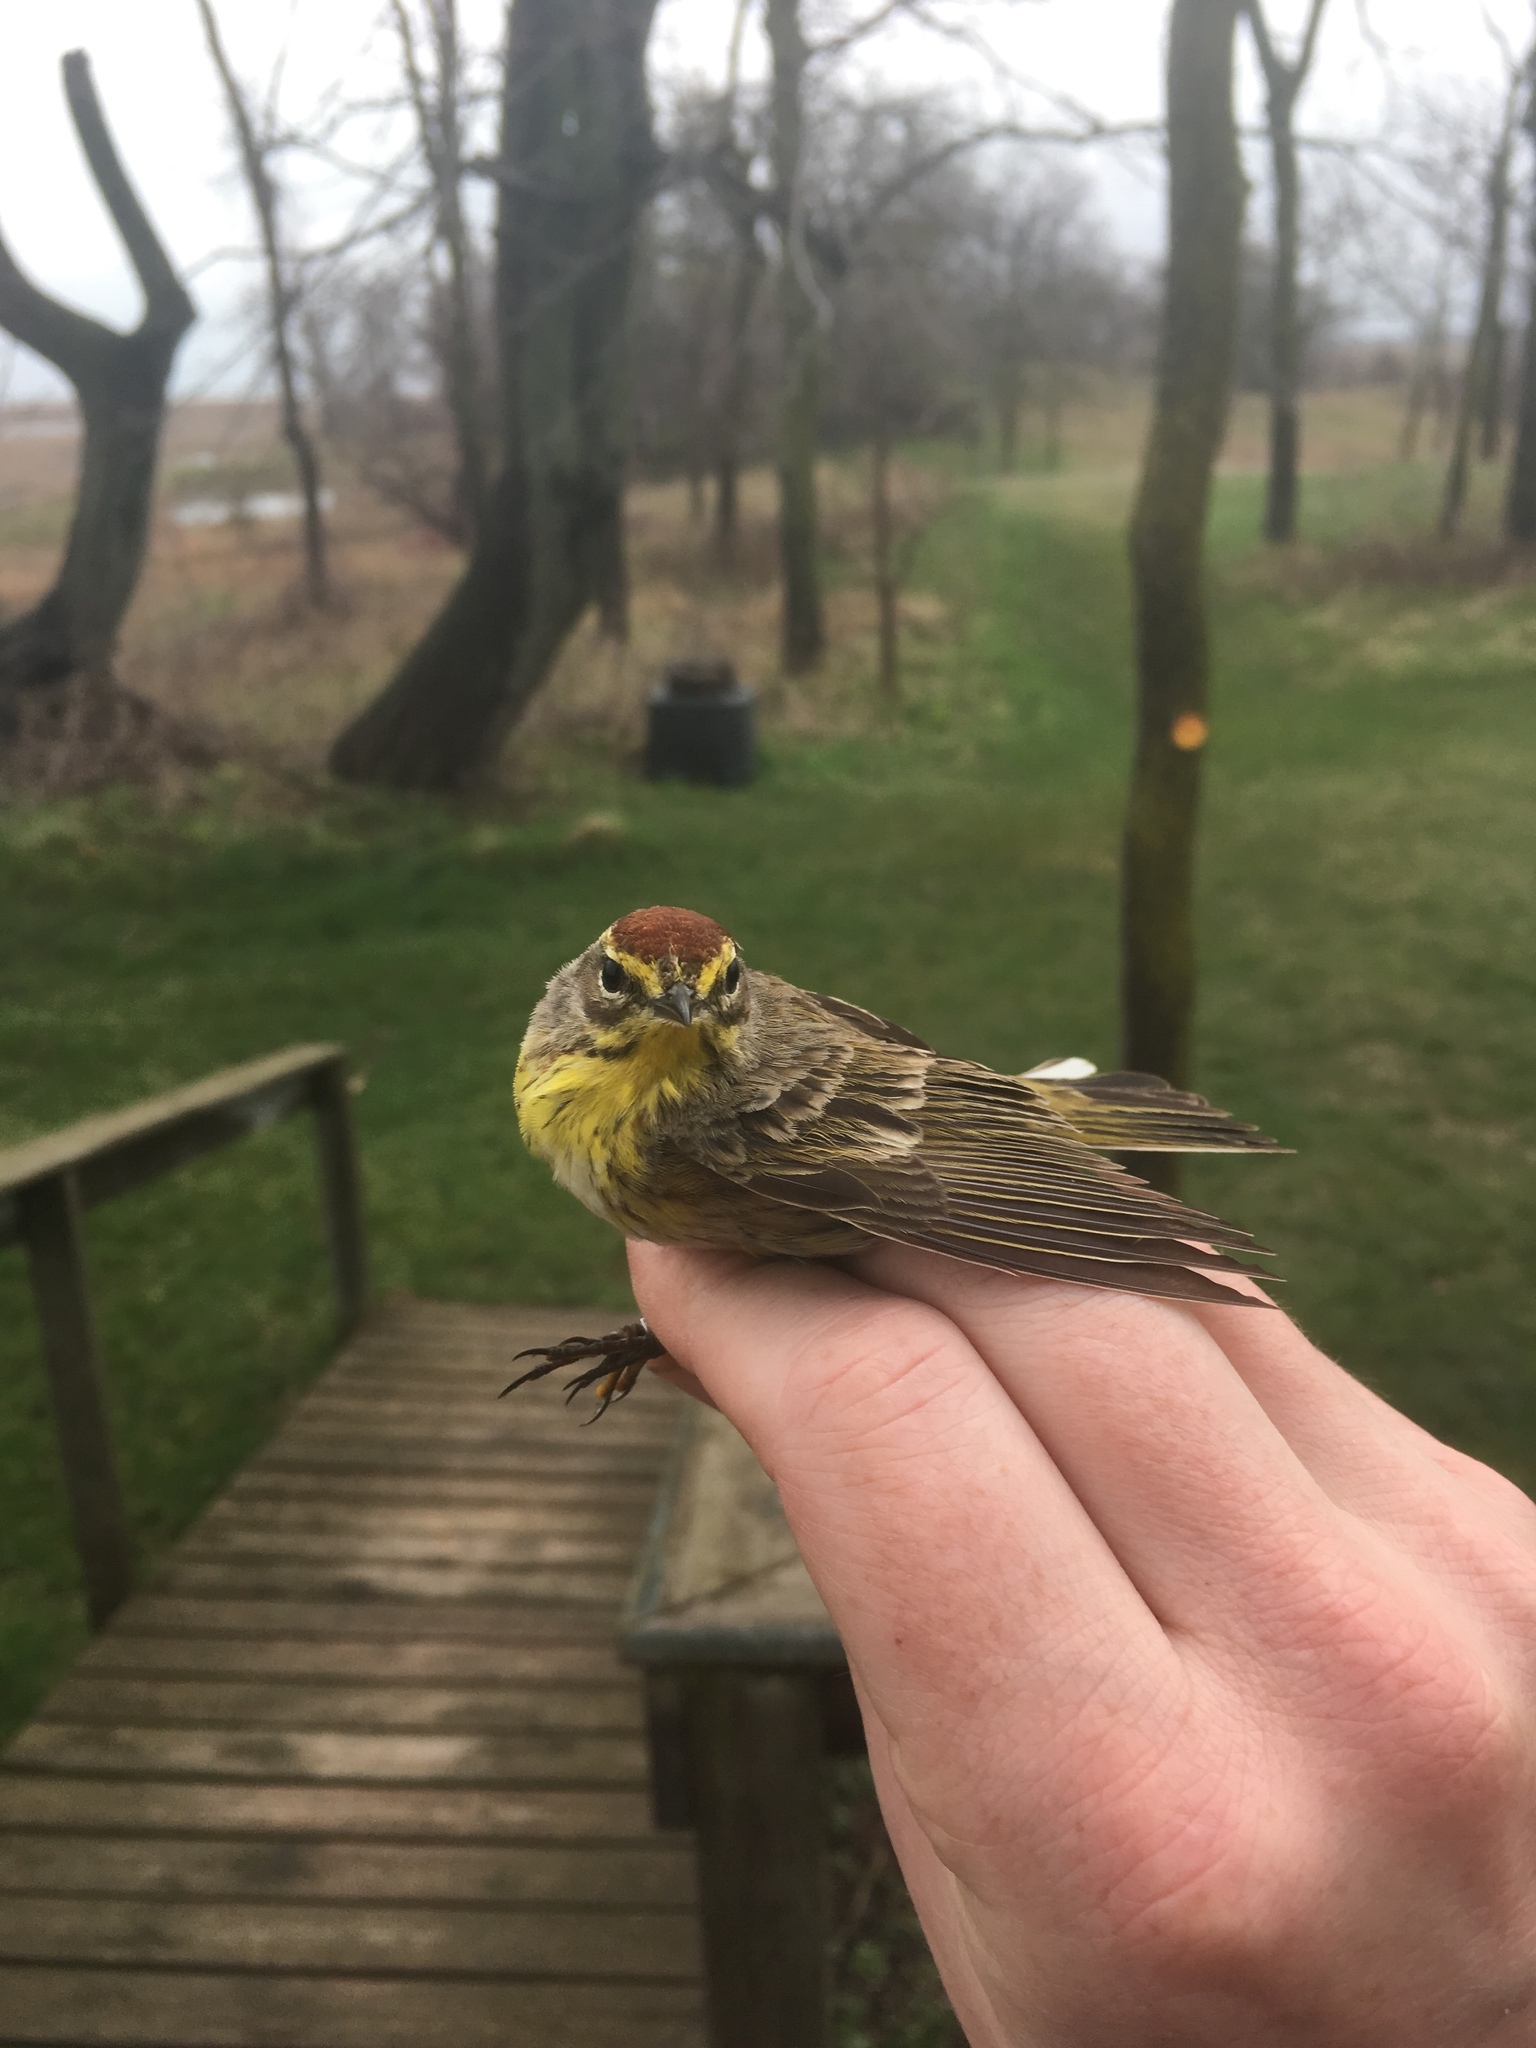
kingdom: Animalia
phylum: Chordata
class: Aves
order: Passeriformes
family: Parulidae
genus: Setophaga
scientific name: Setophaga palmarum
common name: Palm warbler
